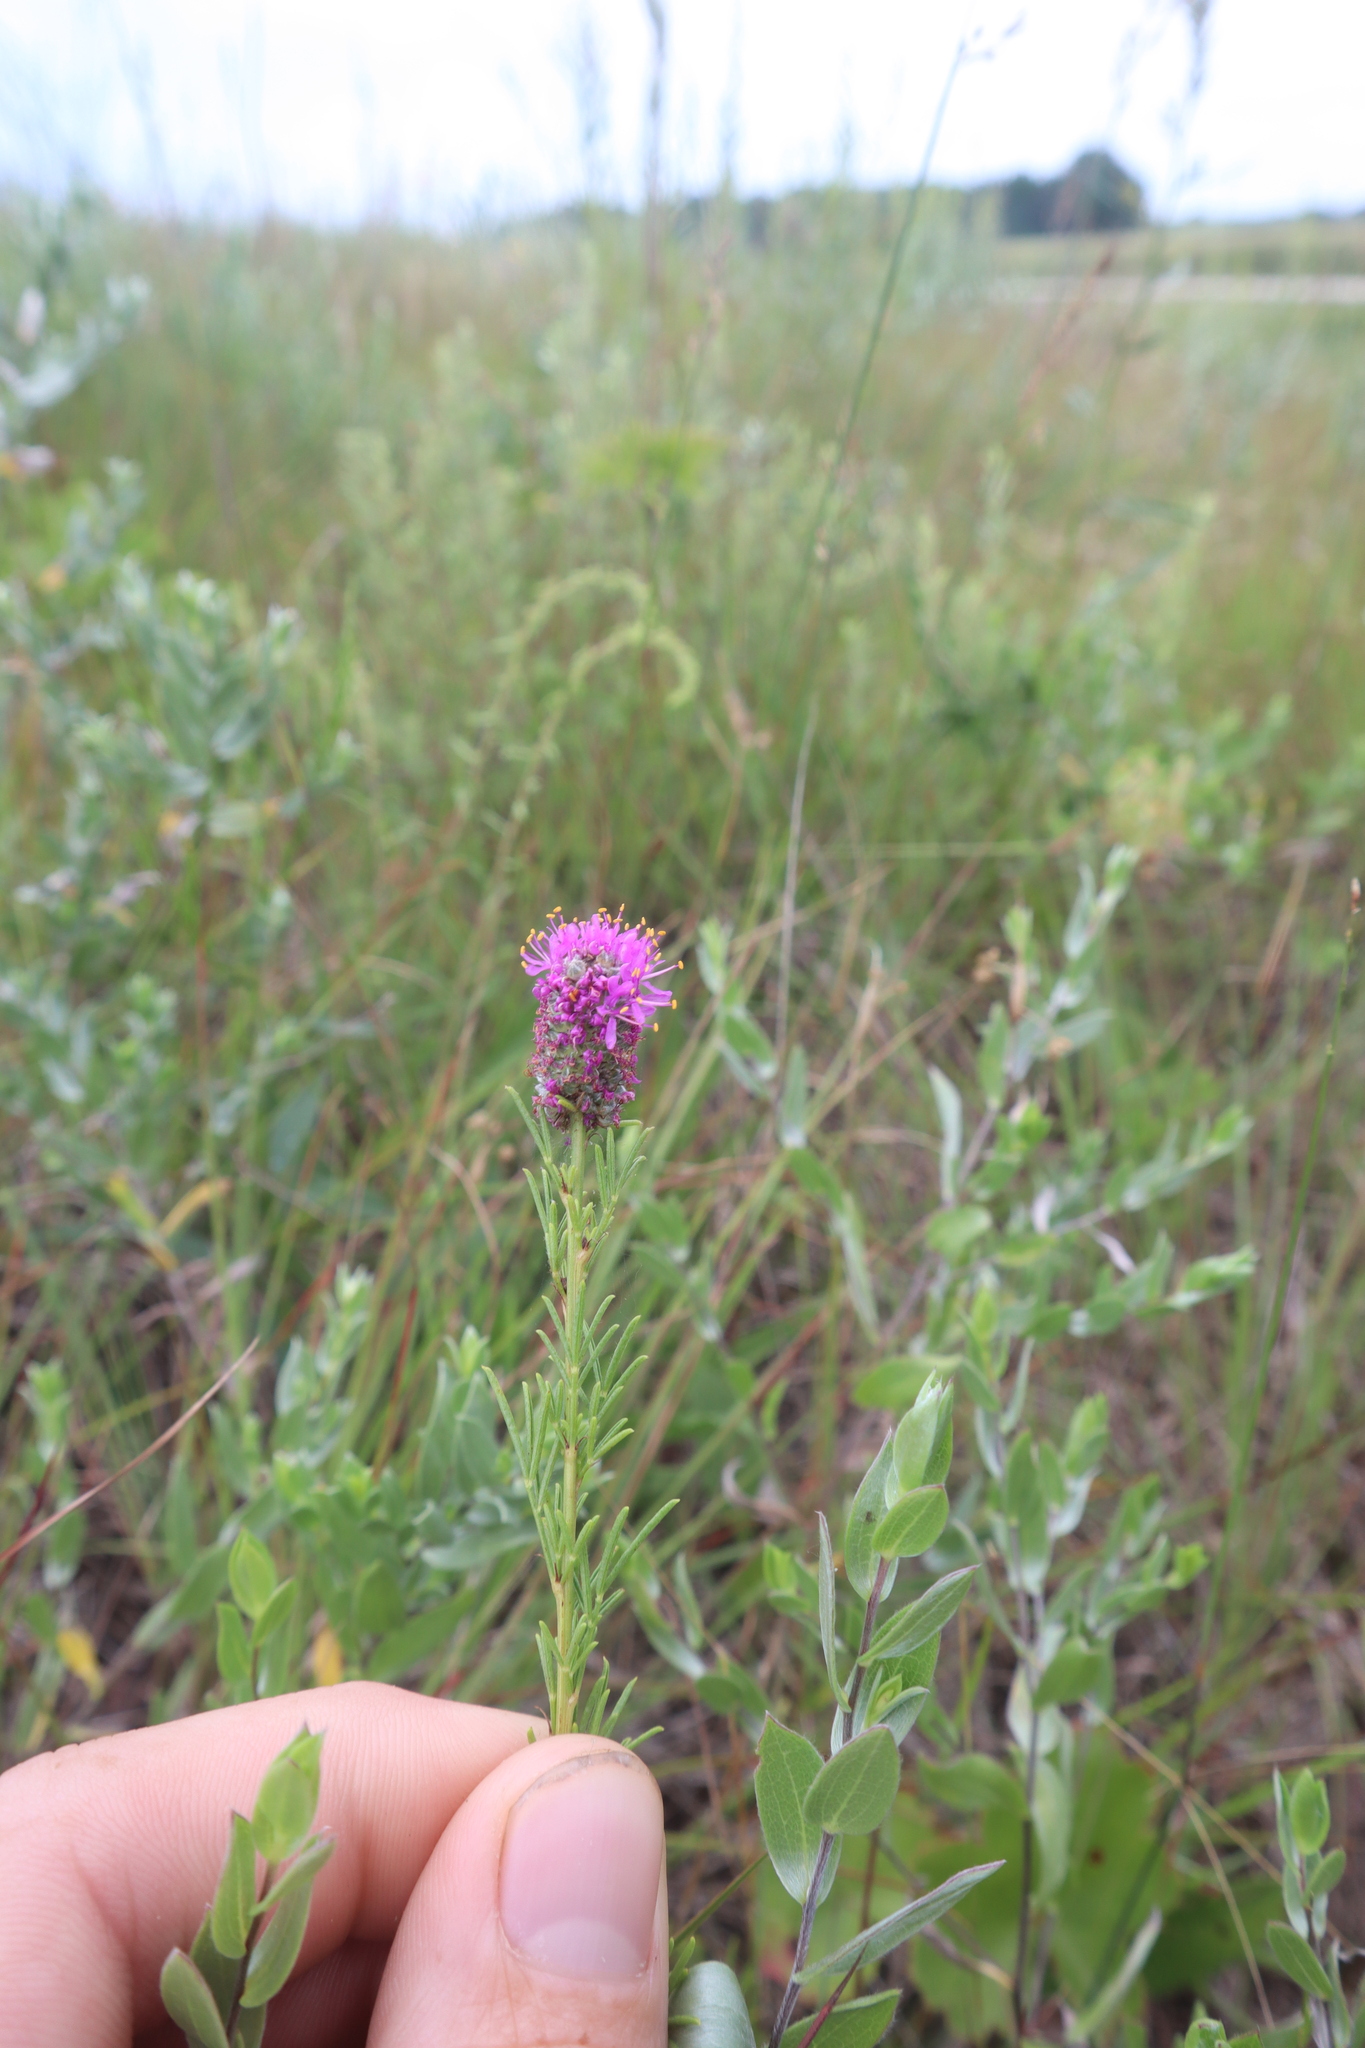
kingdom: Plantae
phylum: Tracheophyta
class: Magnoliopsida
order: Fabales
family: Fabaceae
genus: Dalea
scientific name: Dalea purpurea
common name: Purple prairie-clover
